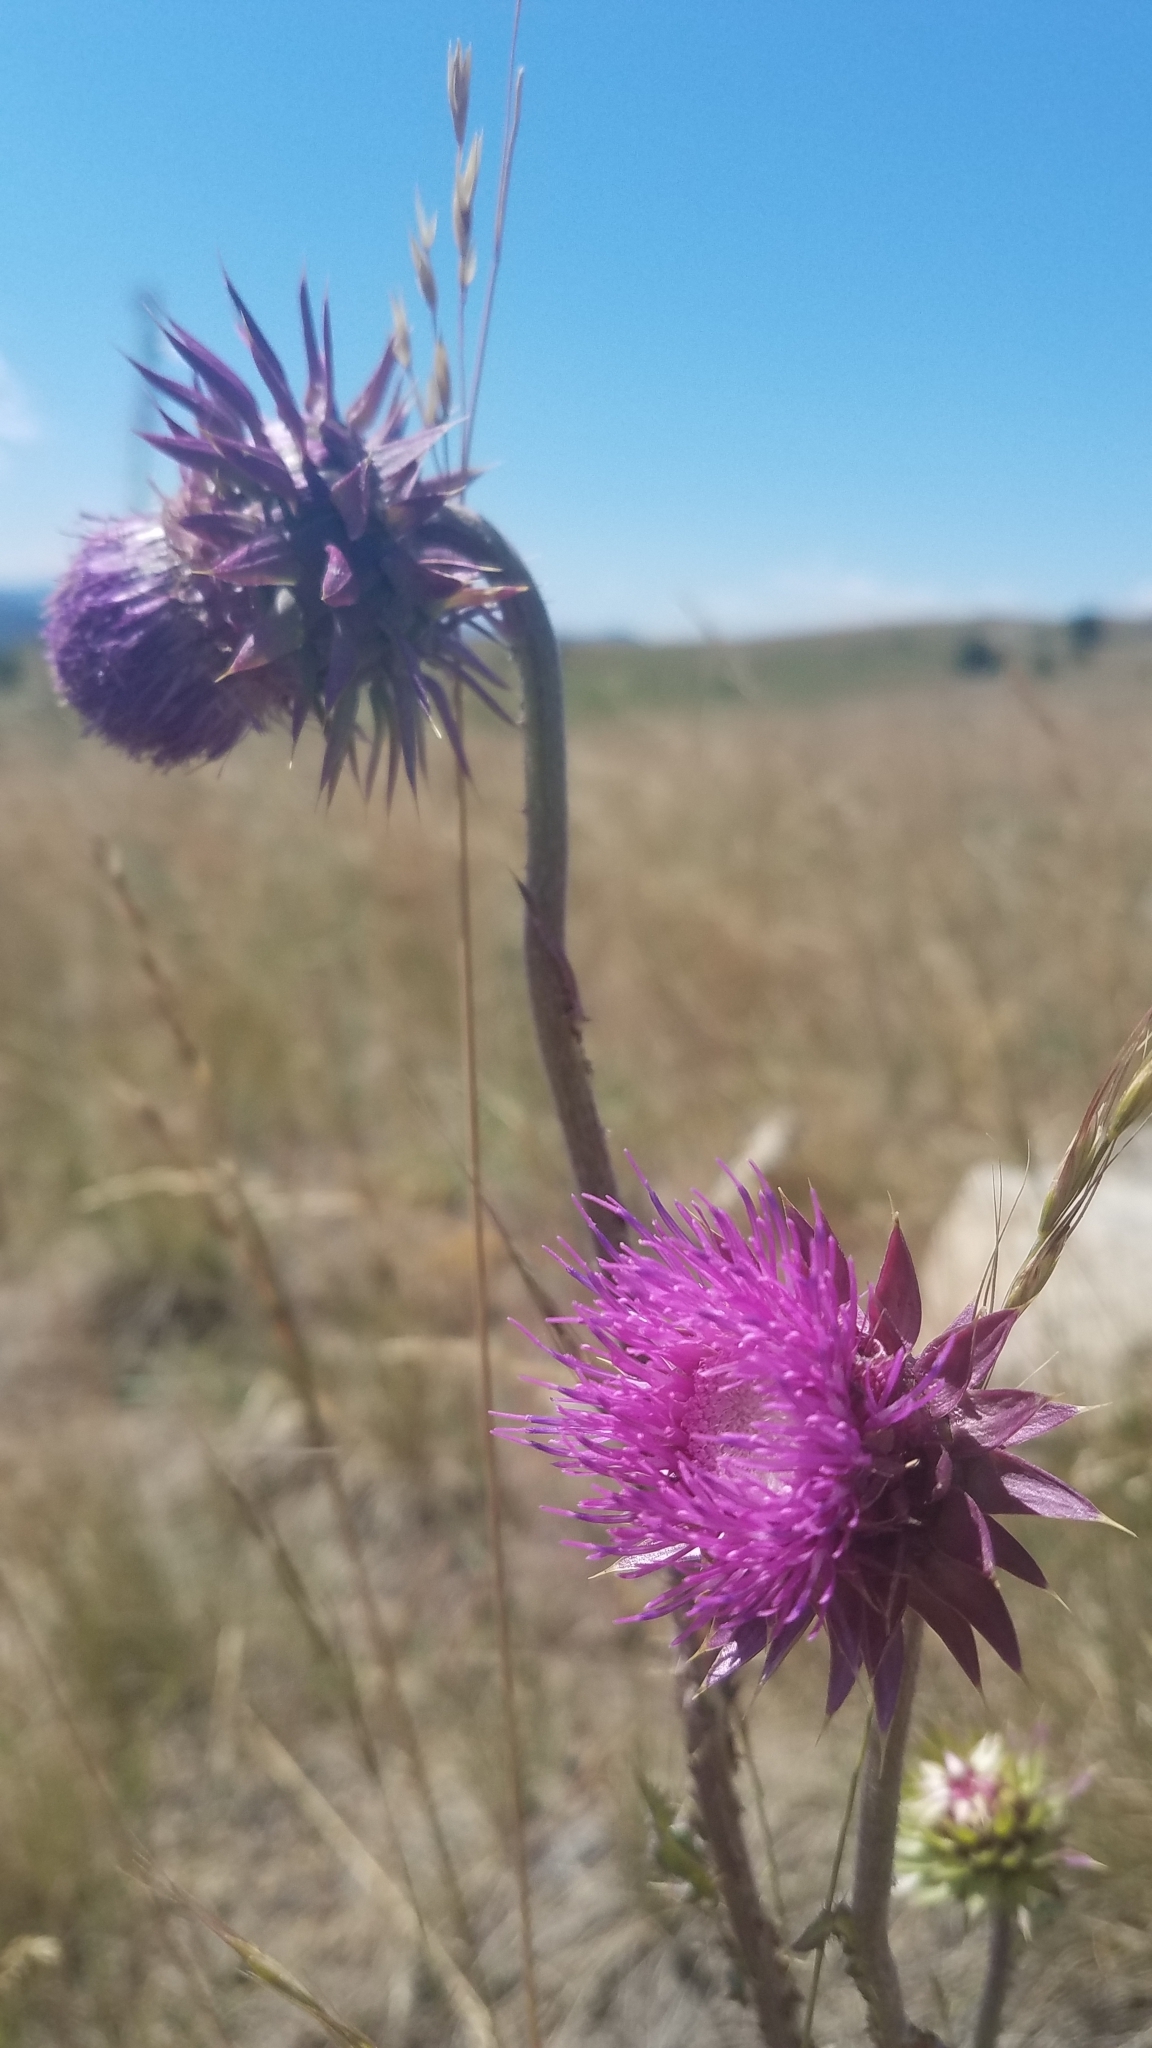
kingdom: Plantae
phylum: Tracheophyta
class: Magnoliopsida
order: Asterales
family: Asteraceae
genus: Carduus
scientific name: Carduus nutans
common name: Musk thistle
